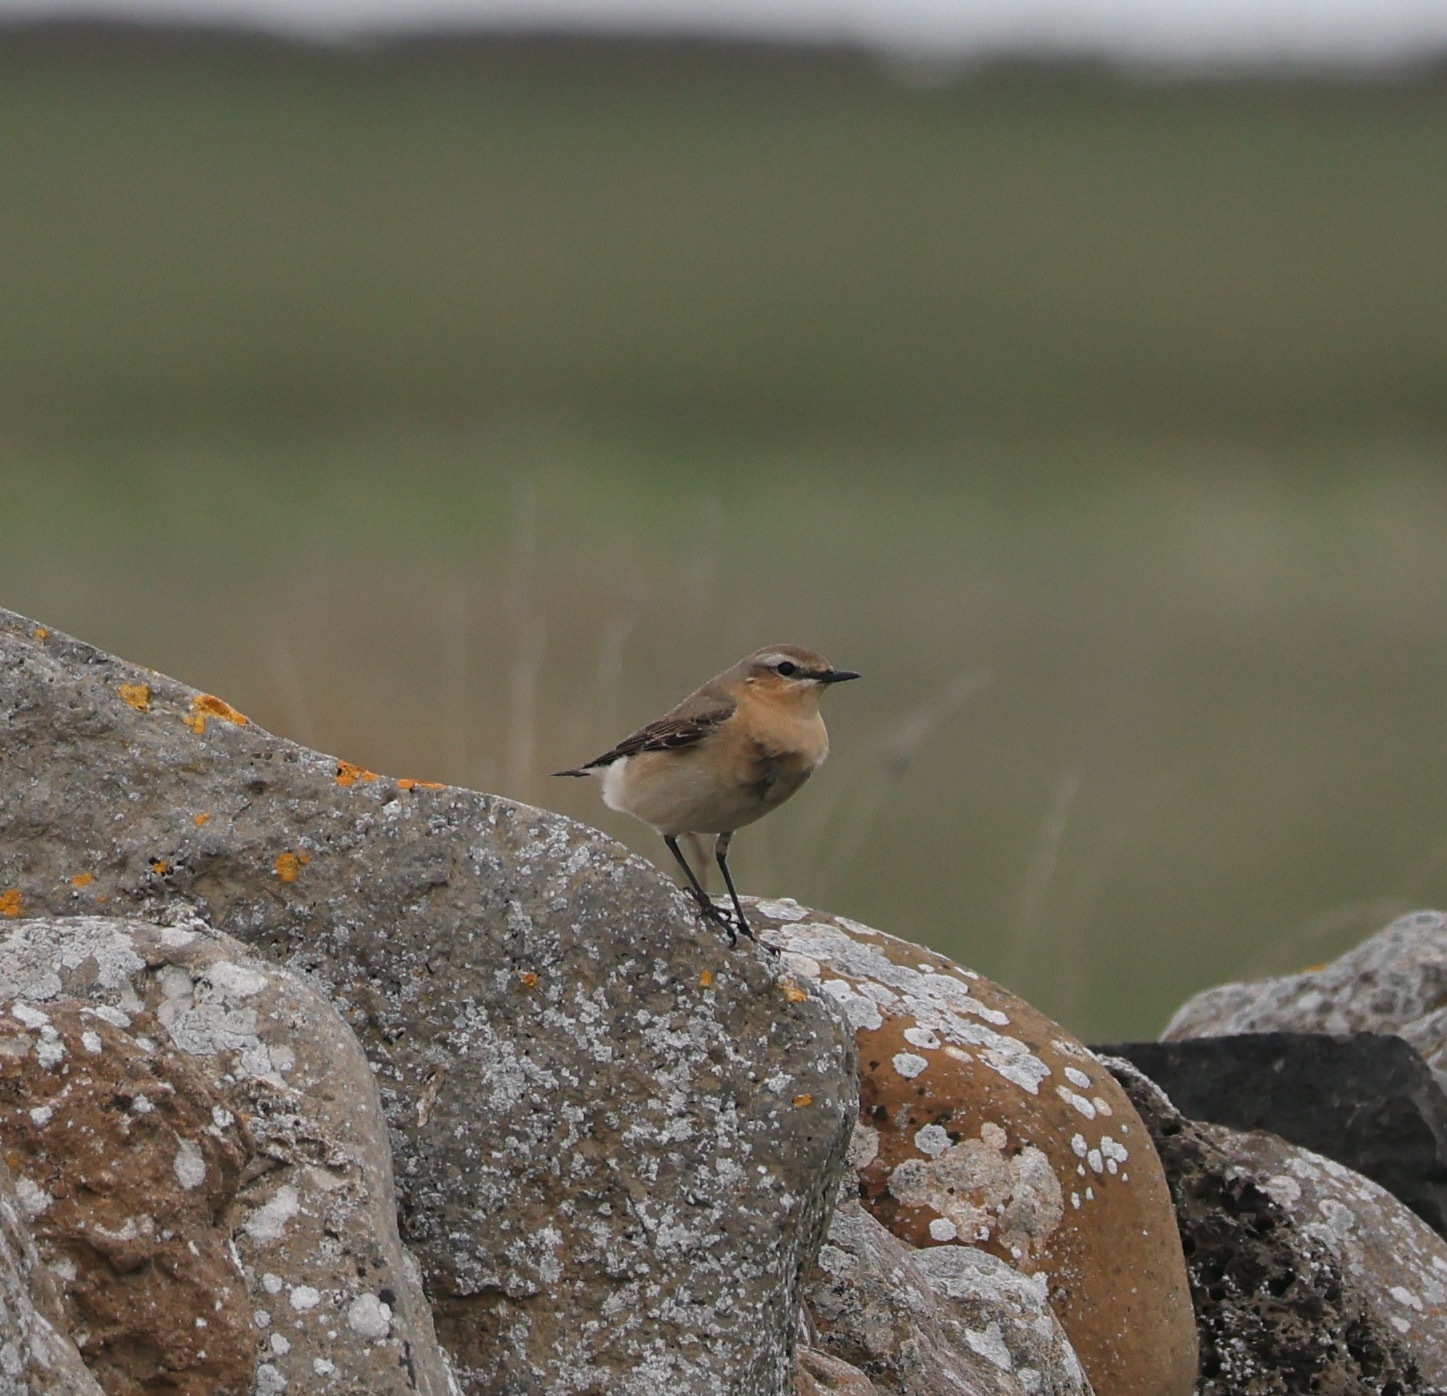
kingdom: Animalia
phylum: Chordata
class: Aves
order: Passeriformes
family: Muscicapidae
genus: Oenanthe
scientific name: Oenanthe oenanthe
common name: Northern wheatear
